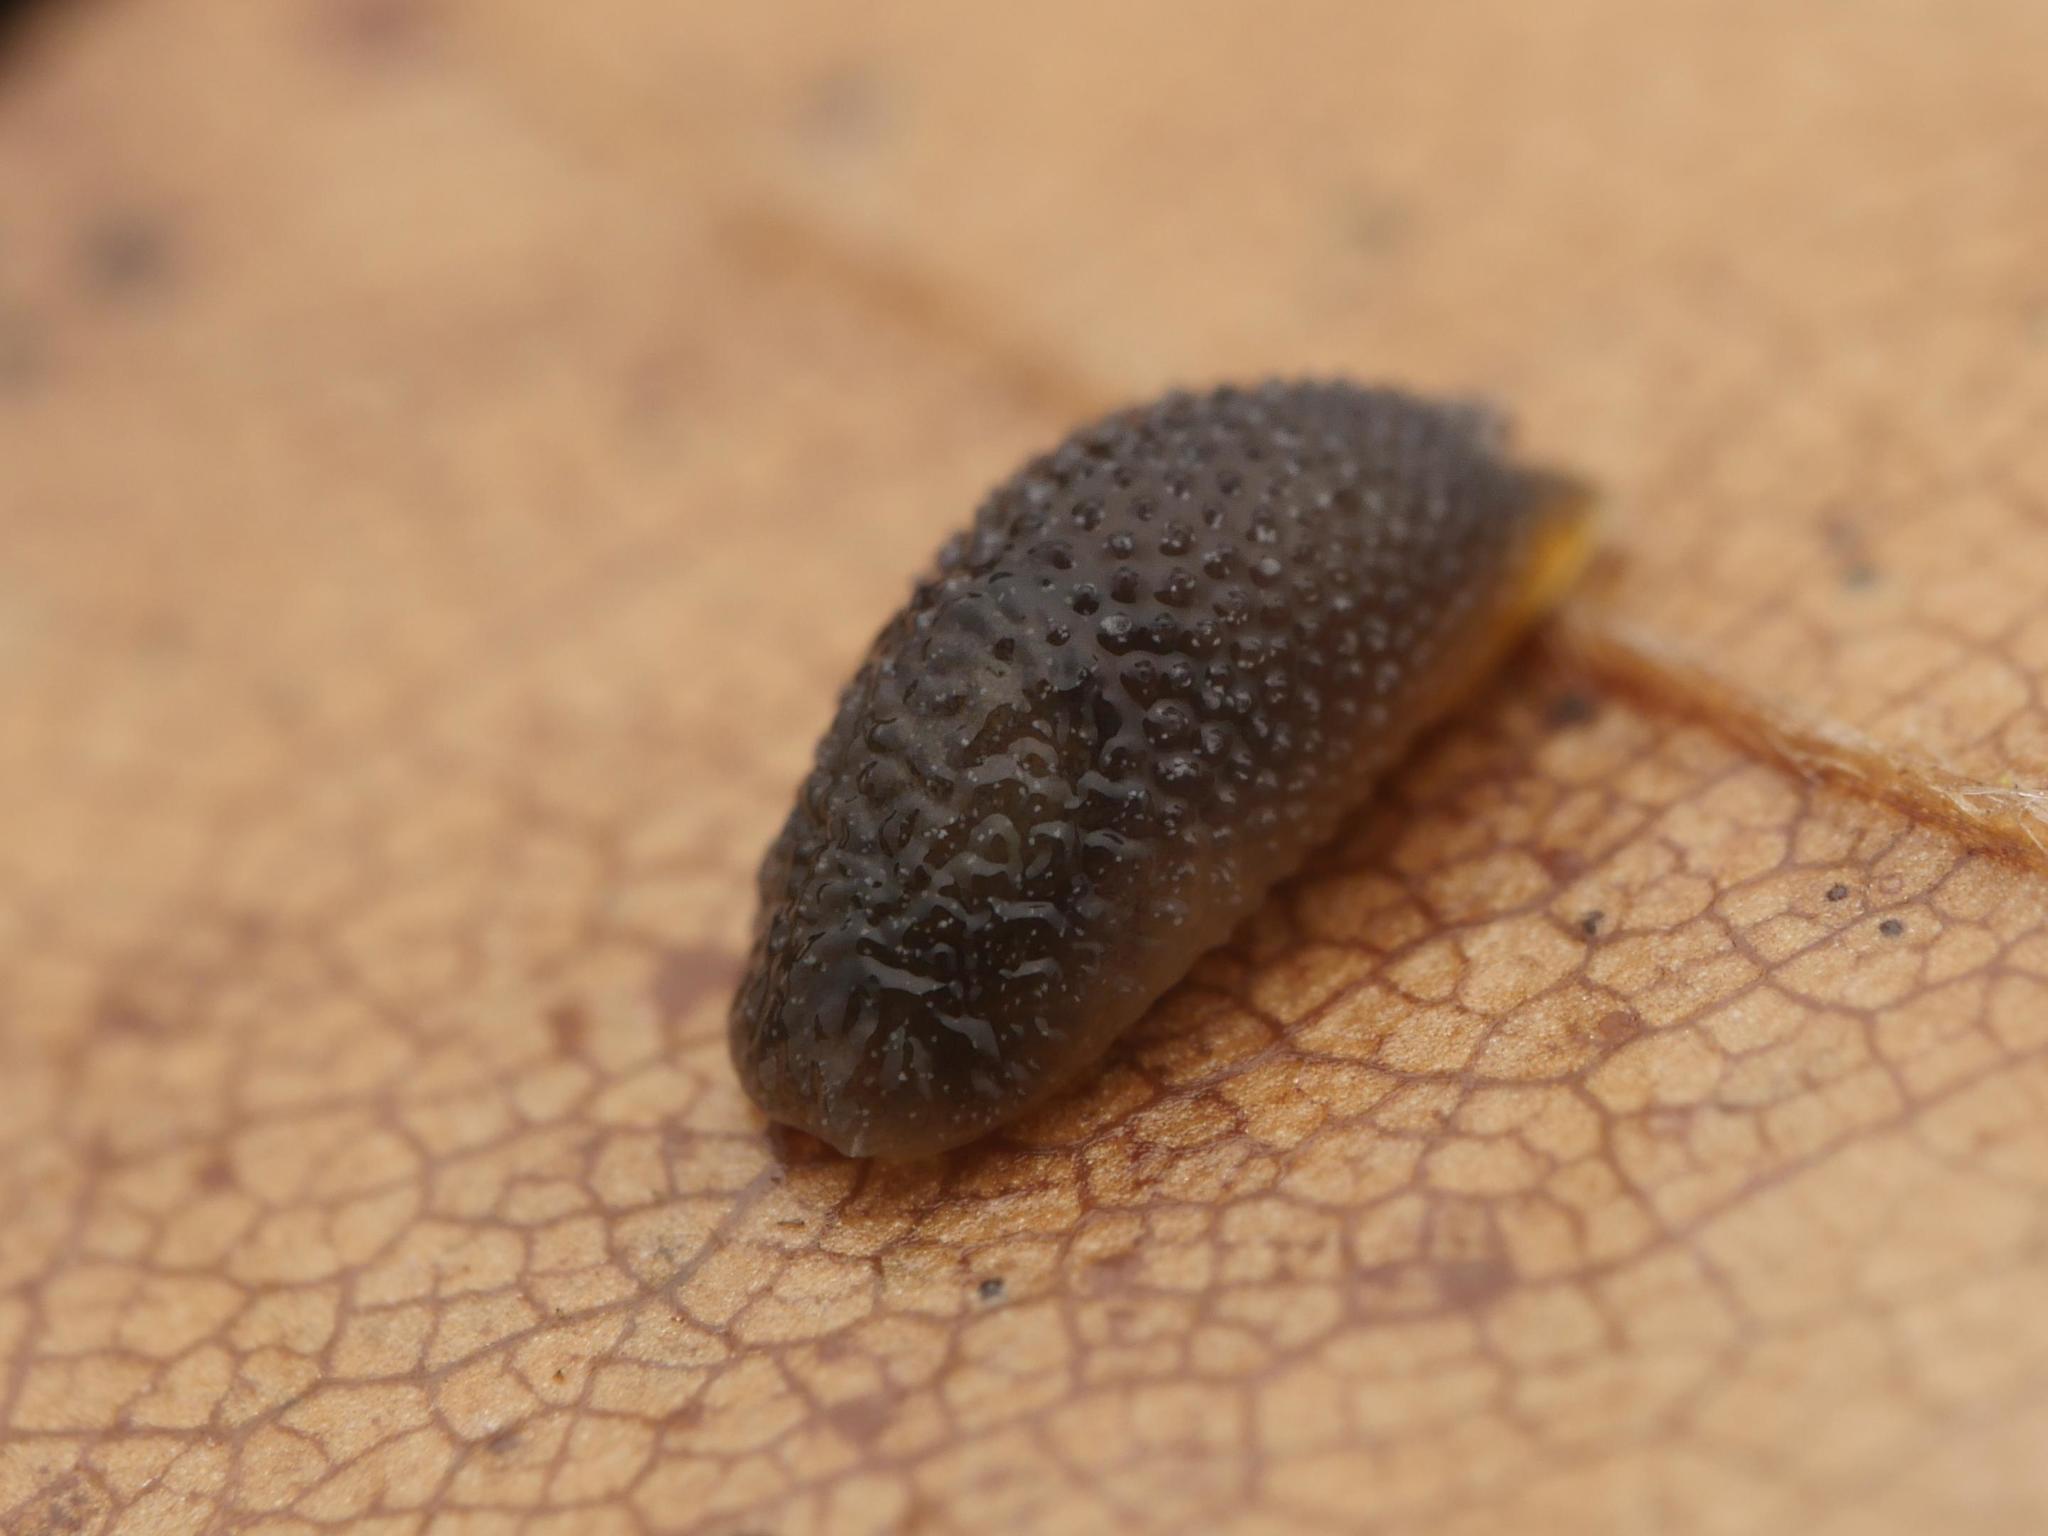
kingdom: Animalia
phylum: Mollusca
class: Gastropoda
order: Stylommatophora
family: Arionidae
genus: Arion
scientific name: Arion intermedius
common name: Hedgehog slug
